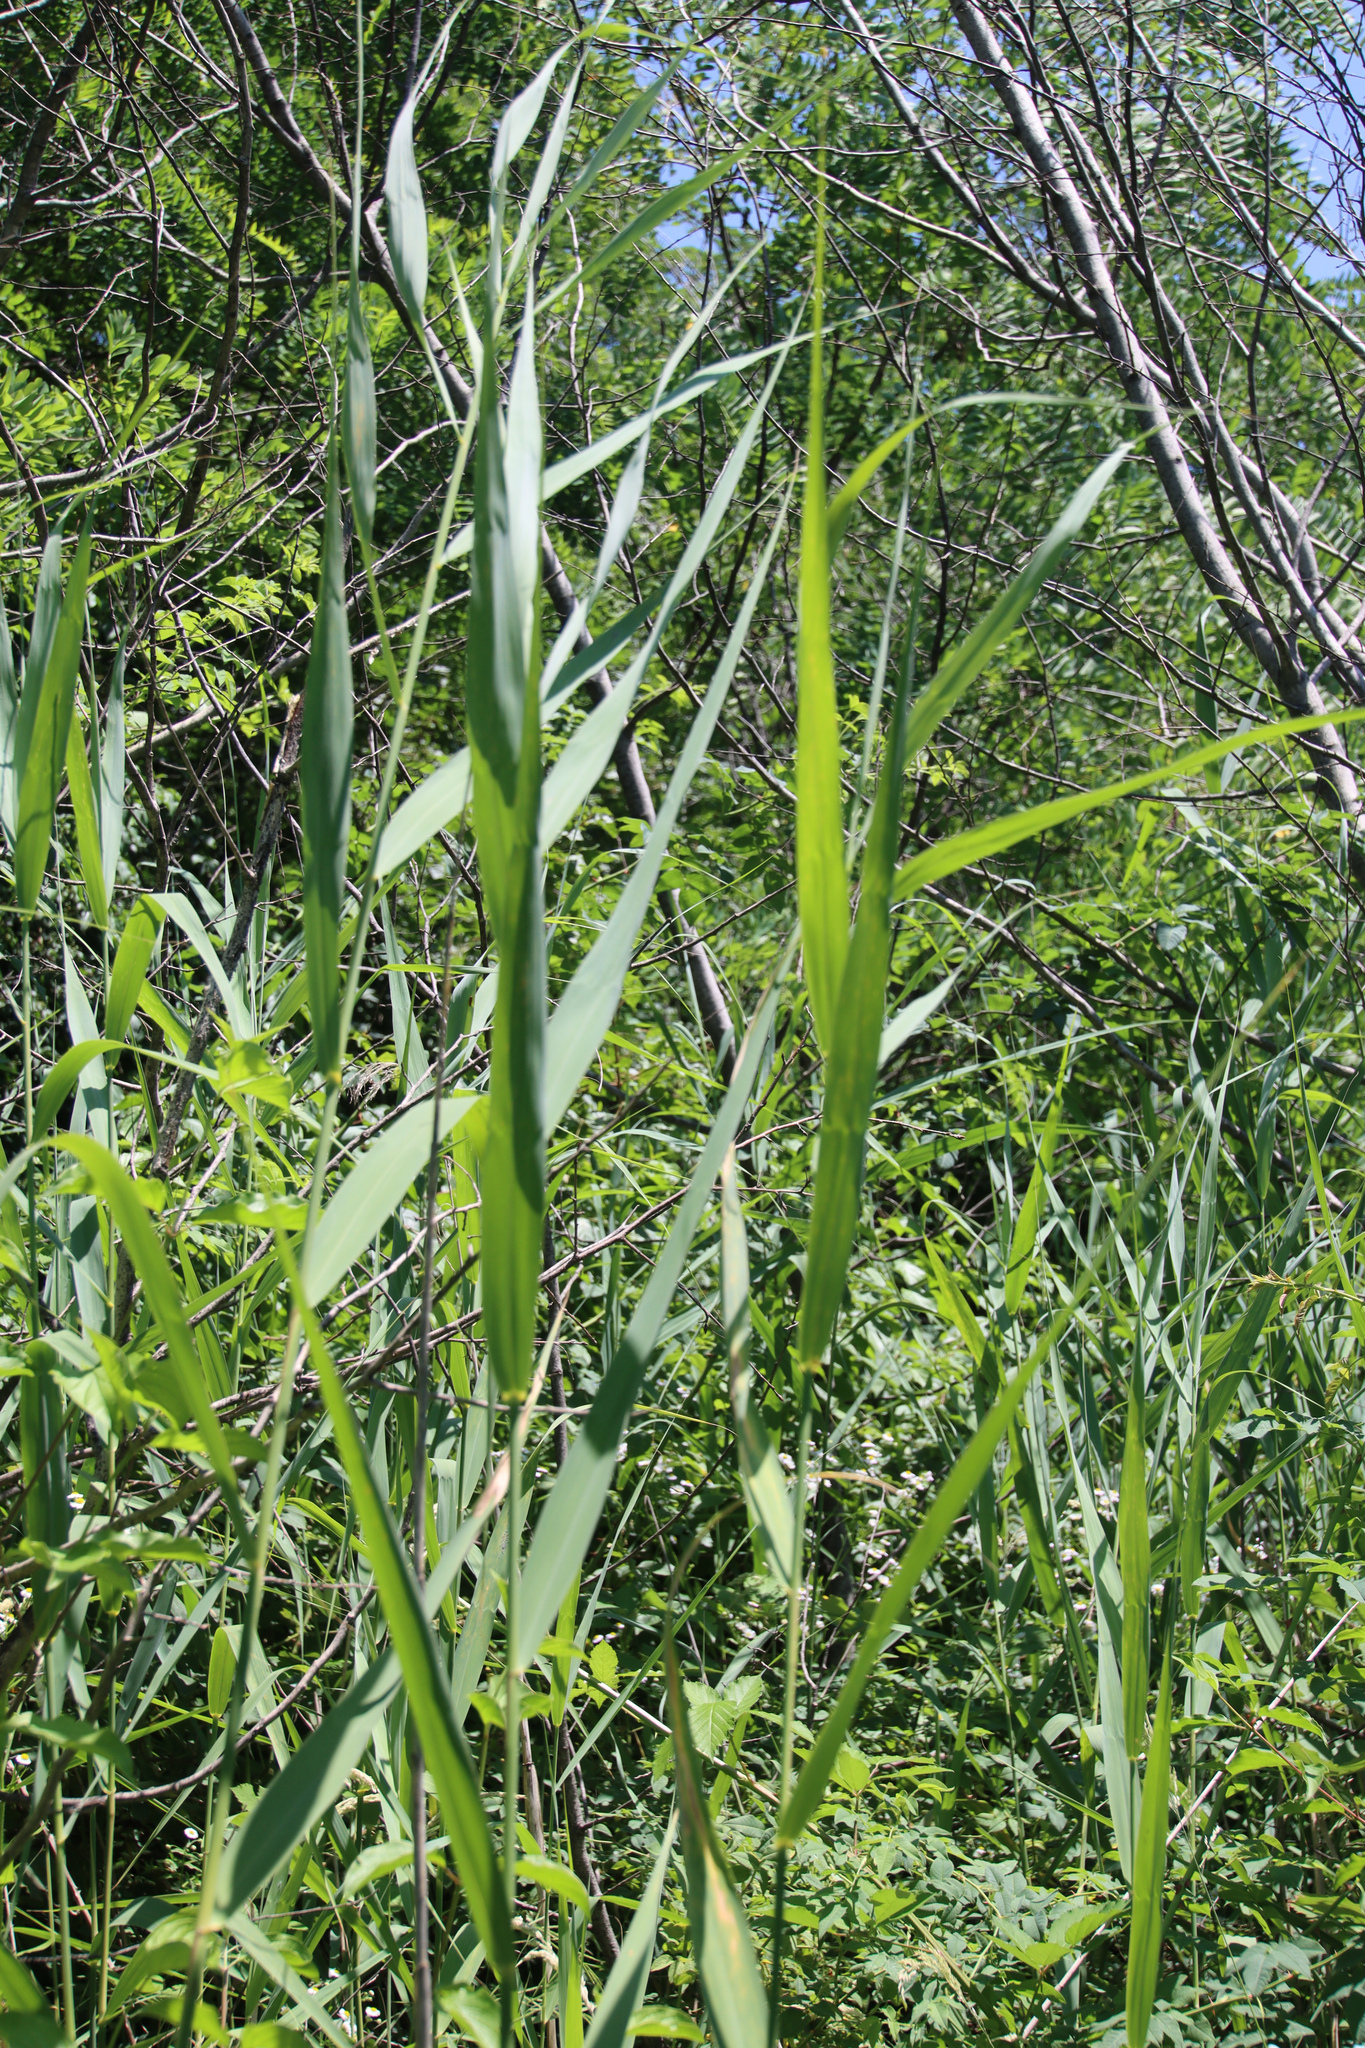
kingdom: Plantae
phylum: Tracheophyta
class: Liliopsida
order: Poales
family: Poaceae
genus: Phragmites
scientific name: Phragmites australis
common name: Common reed
